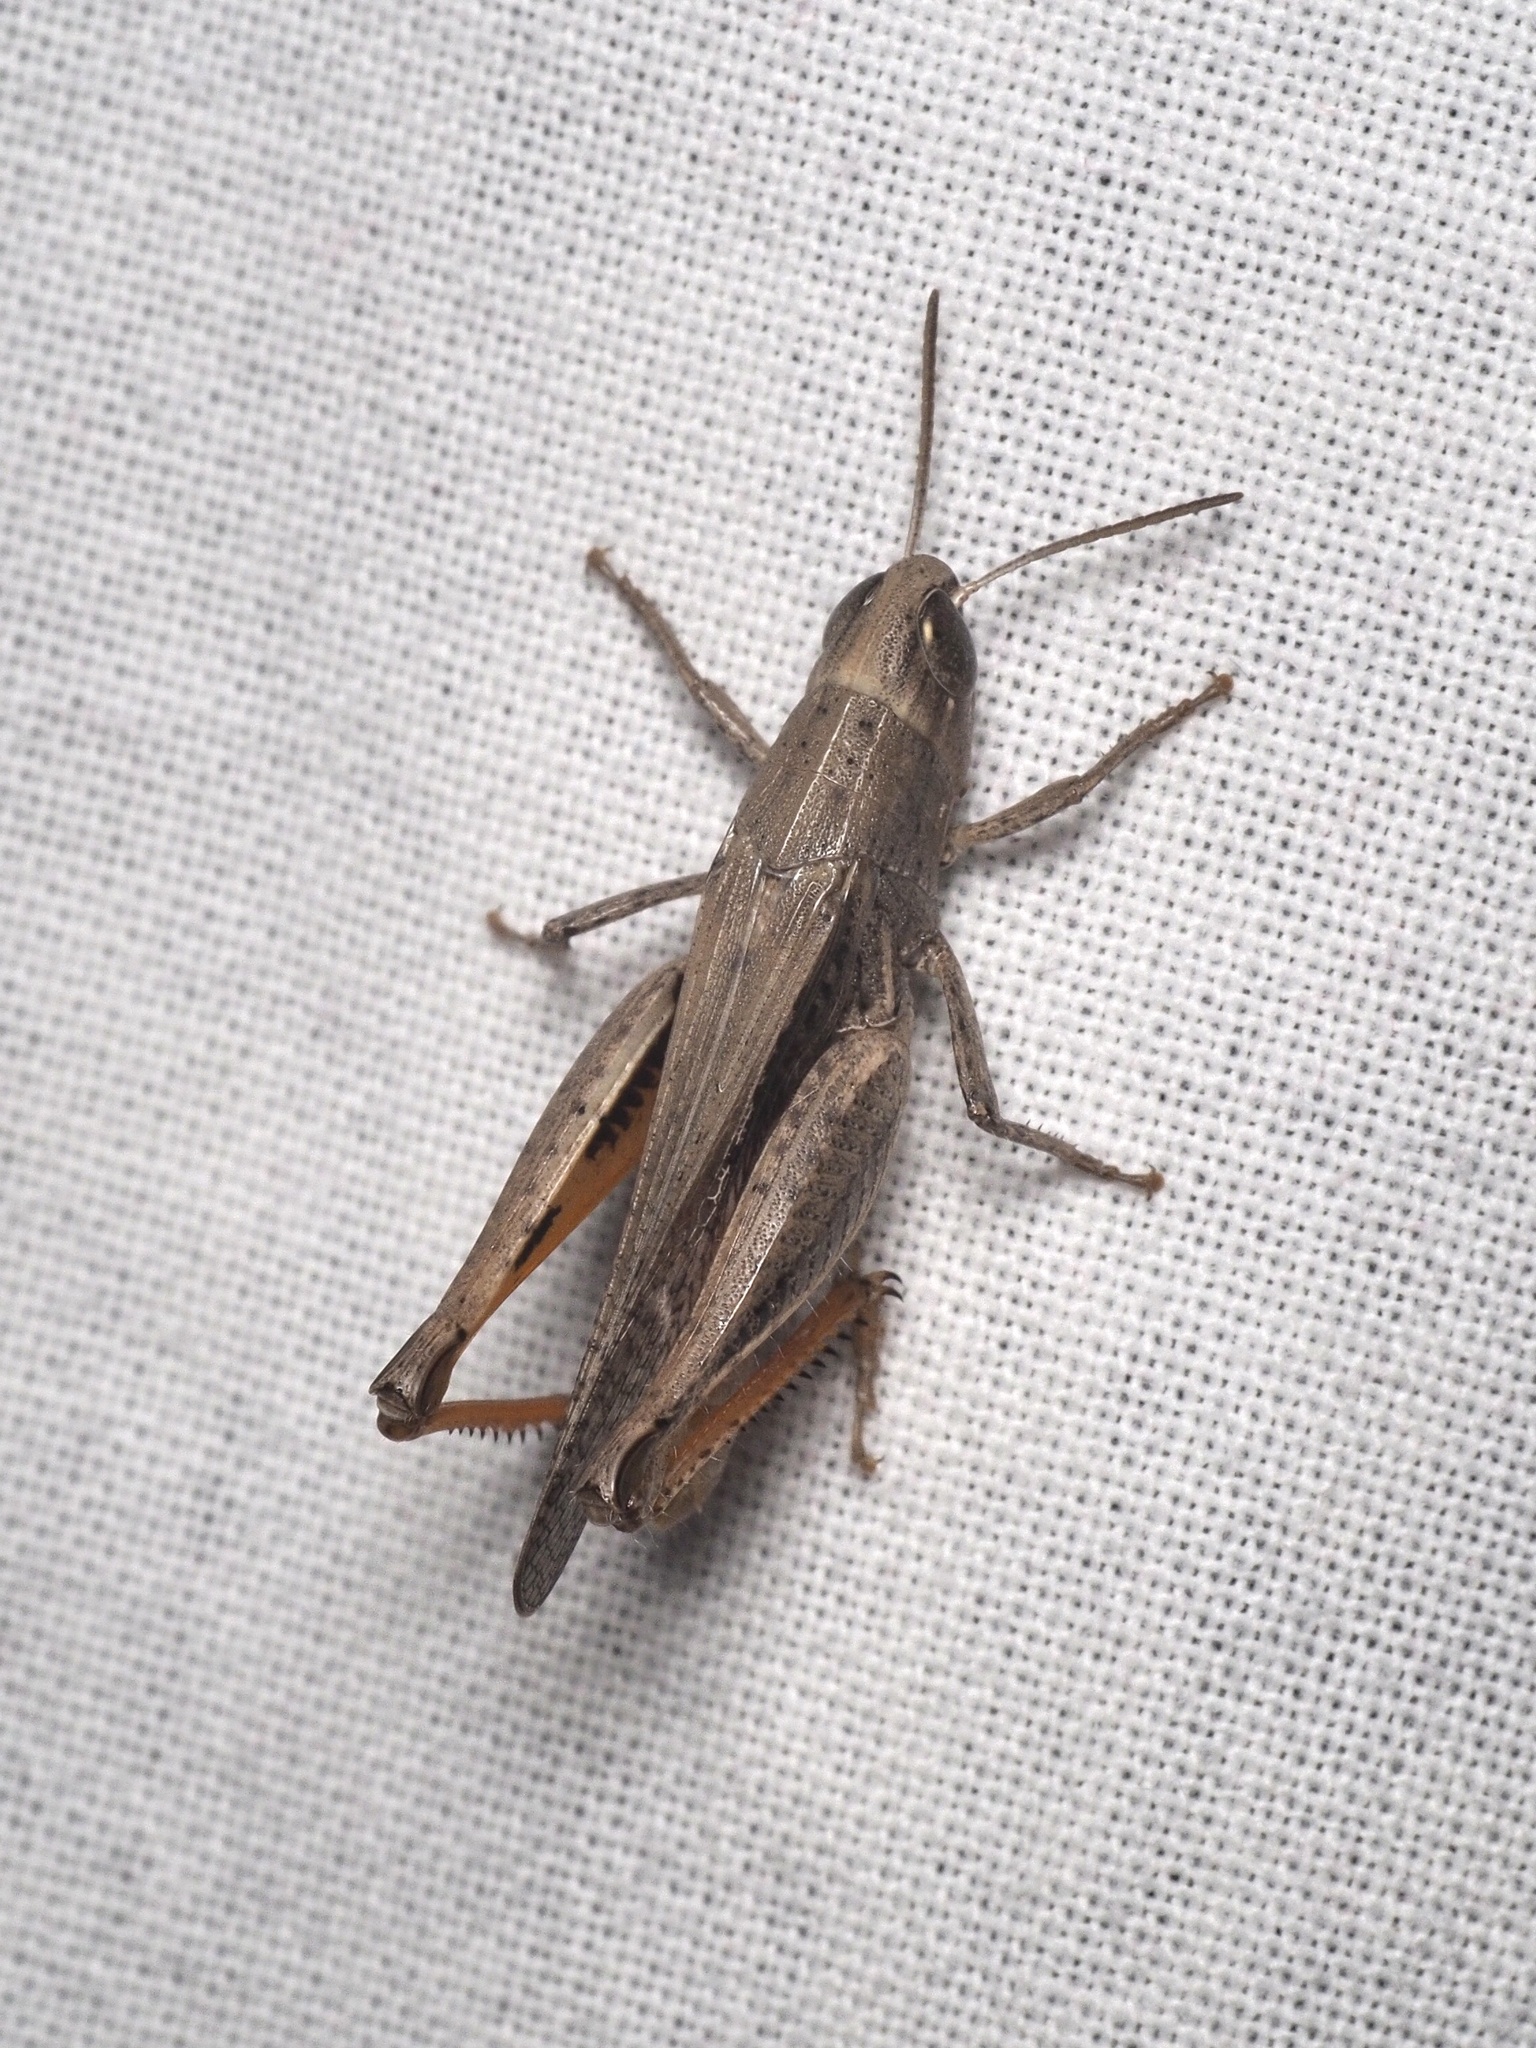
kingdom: Animalia
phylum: Arthropoda
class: Insecta
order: Orthoptera
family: Acrididae
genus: Pnorisa
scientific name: Pnorisa squalus
